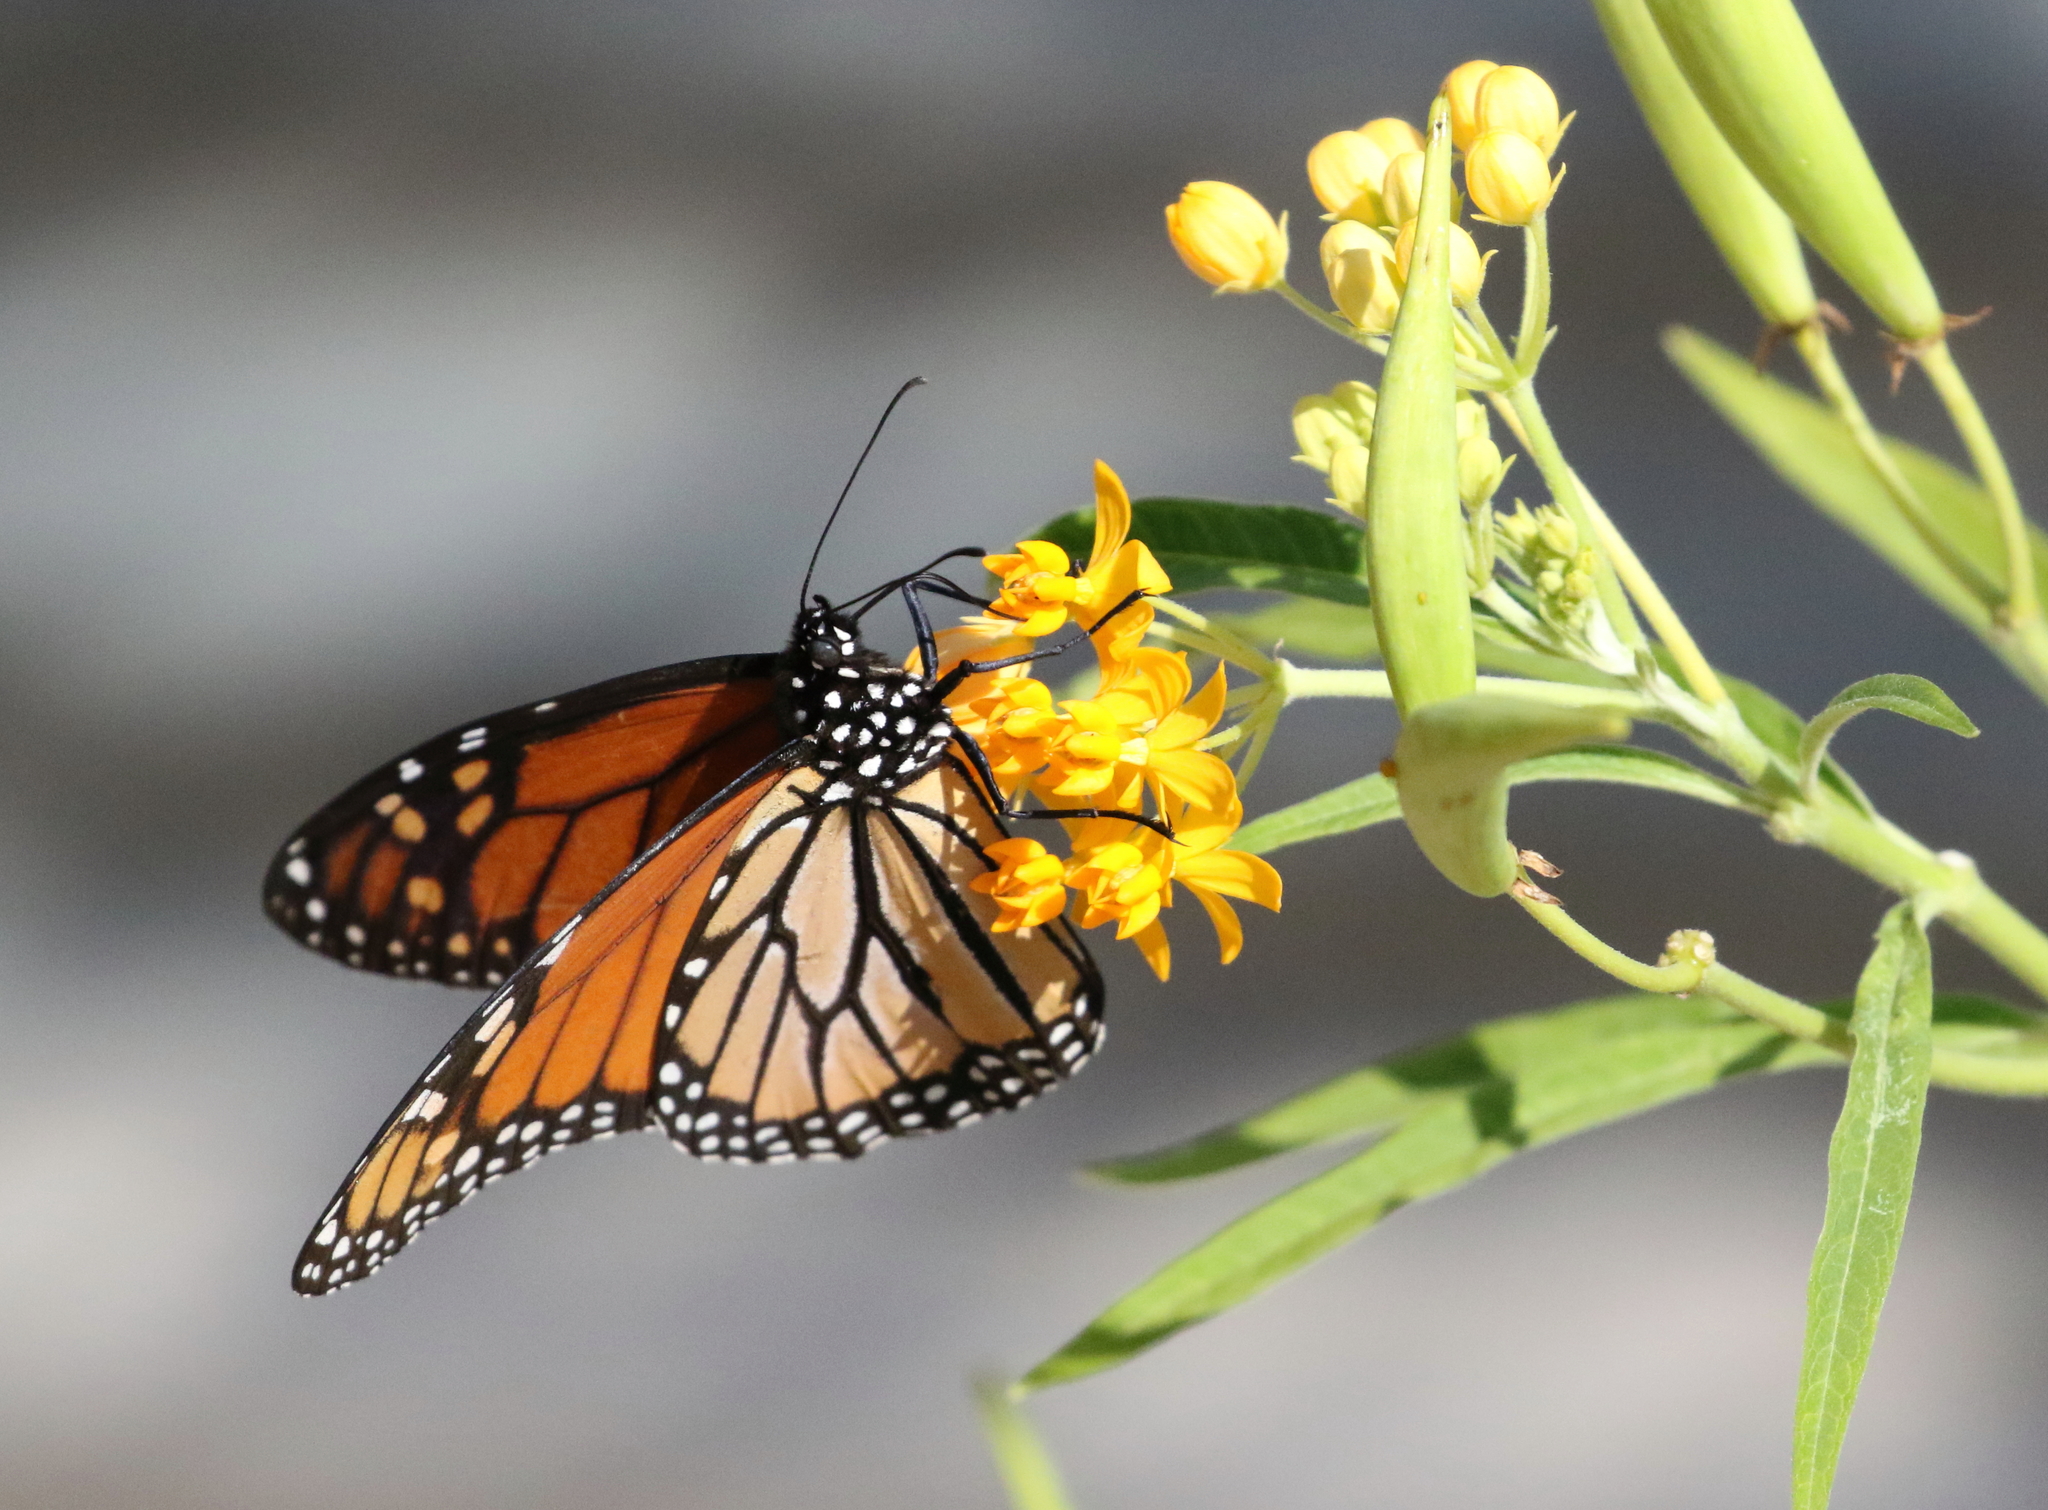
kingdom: Animalia
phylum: Arthropoda
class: Insecta
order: Lepidoptera
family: Nymphalidae
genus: Danaus
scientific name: Danaus plexippus
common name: Monarch
